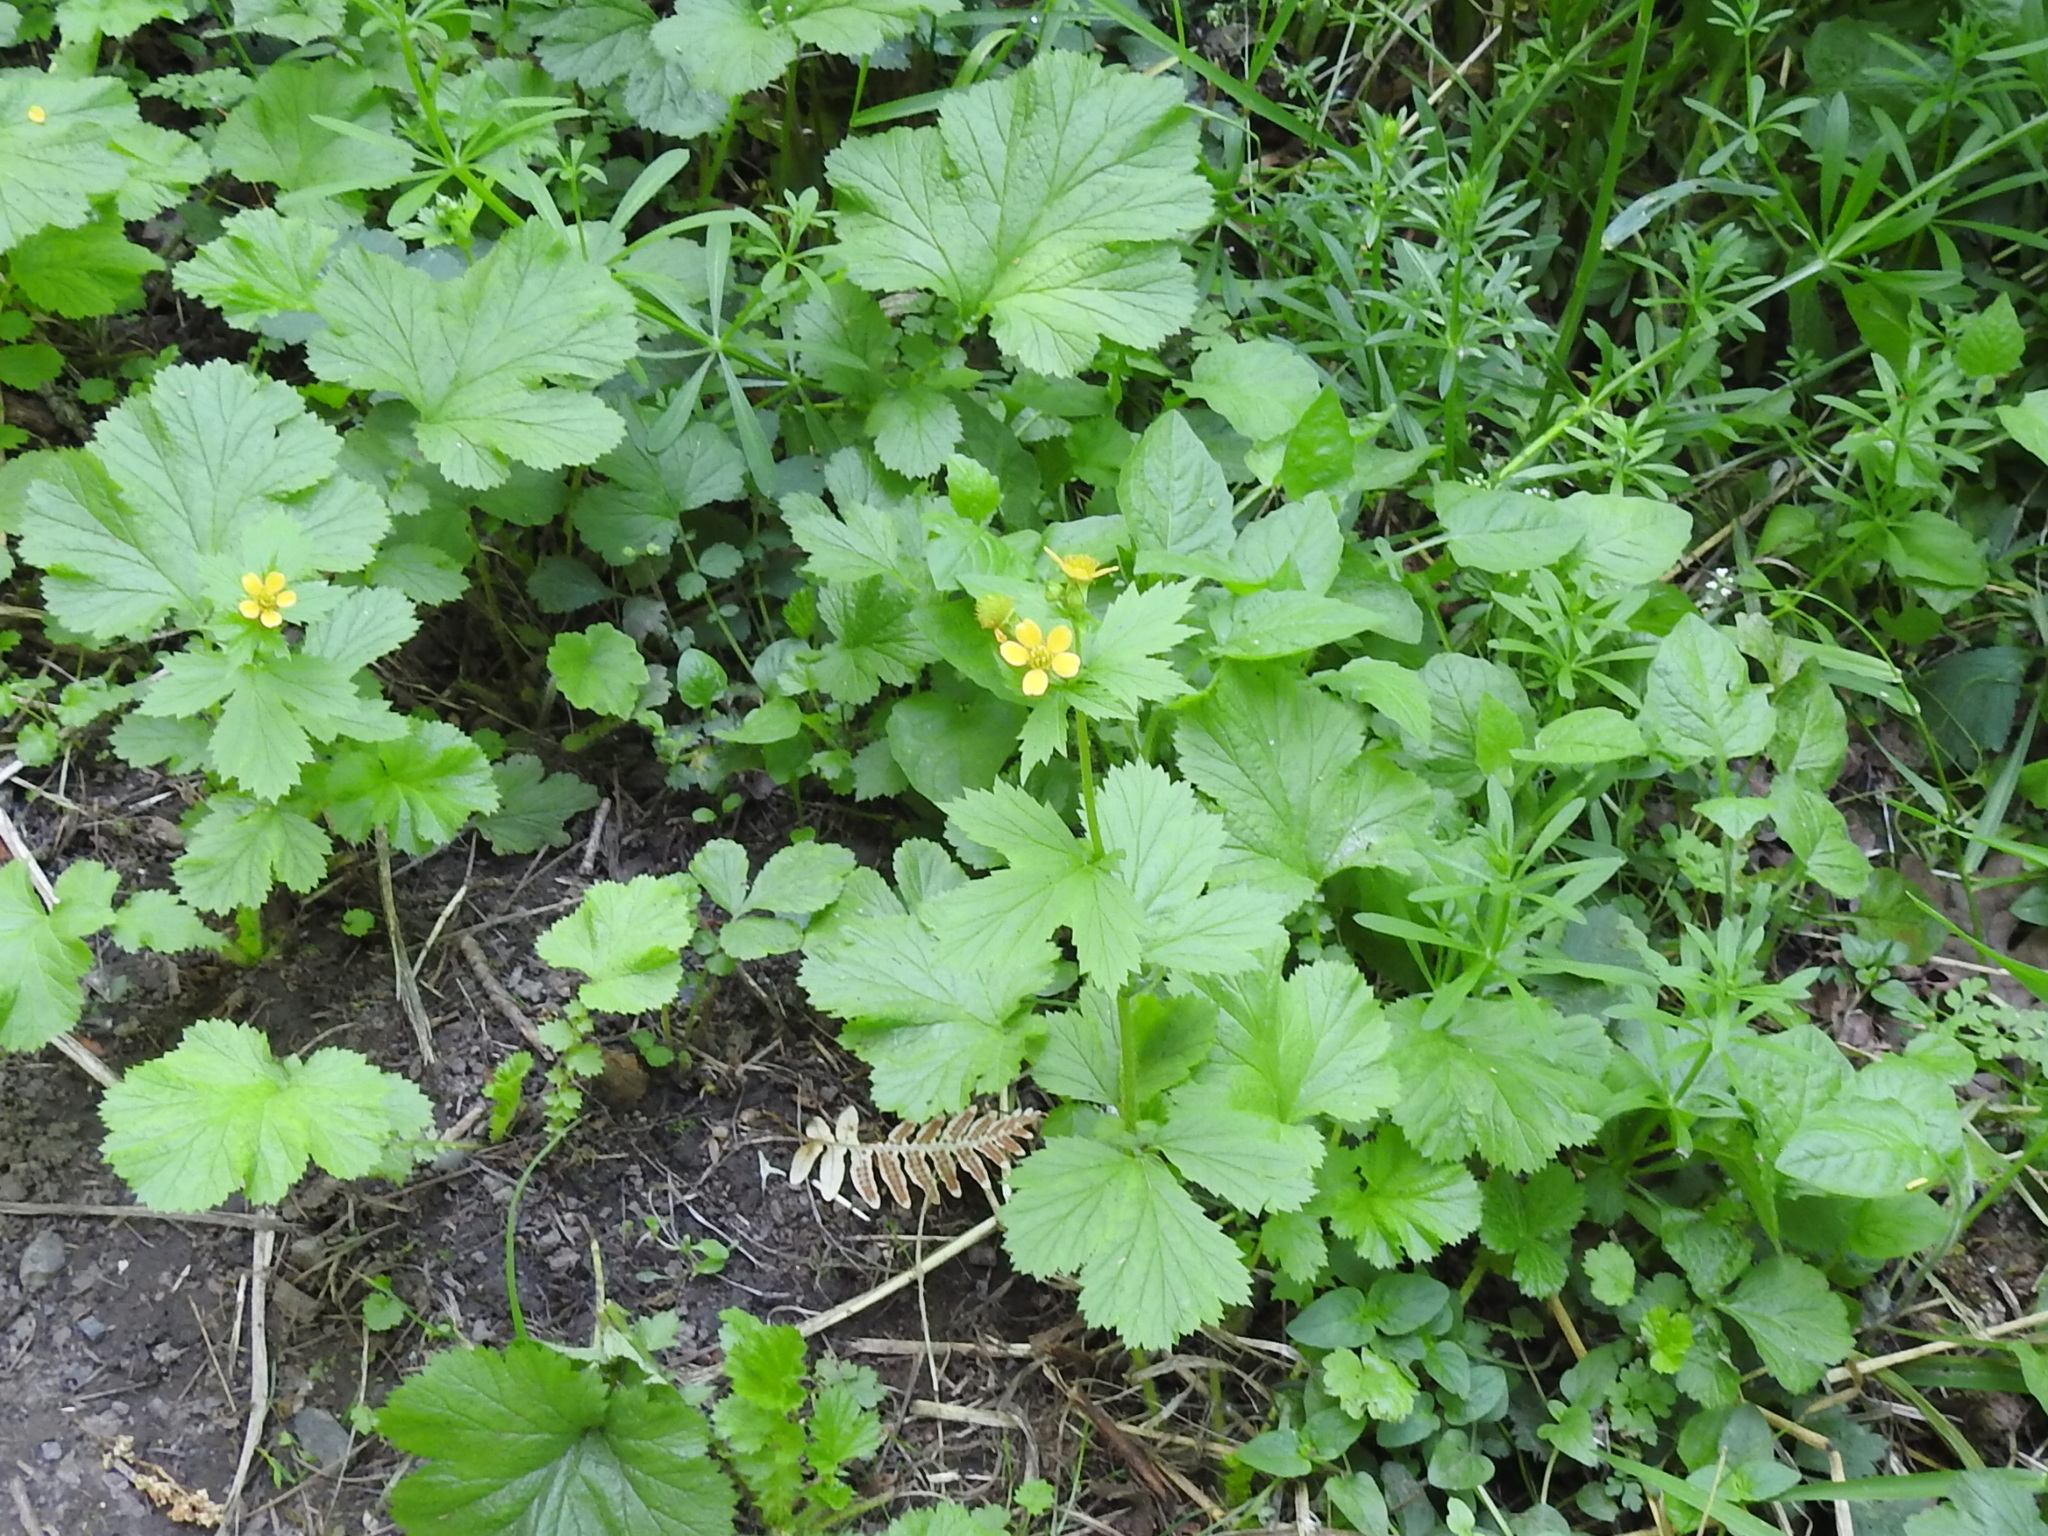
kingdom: Plantae
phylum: Tracheophyta
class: Magnoliopsida
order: Rosales
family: Rosaceae
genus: Geum
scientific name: Geum macrophyllum
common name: Large-leaved avens
